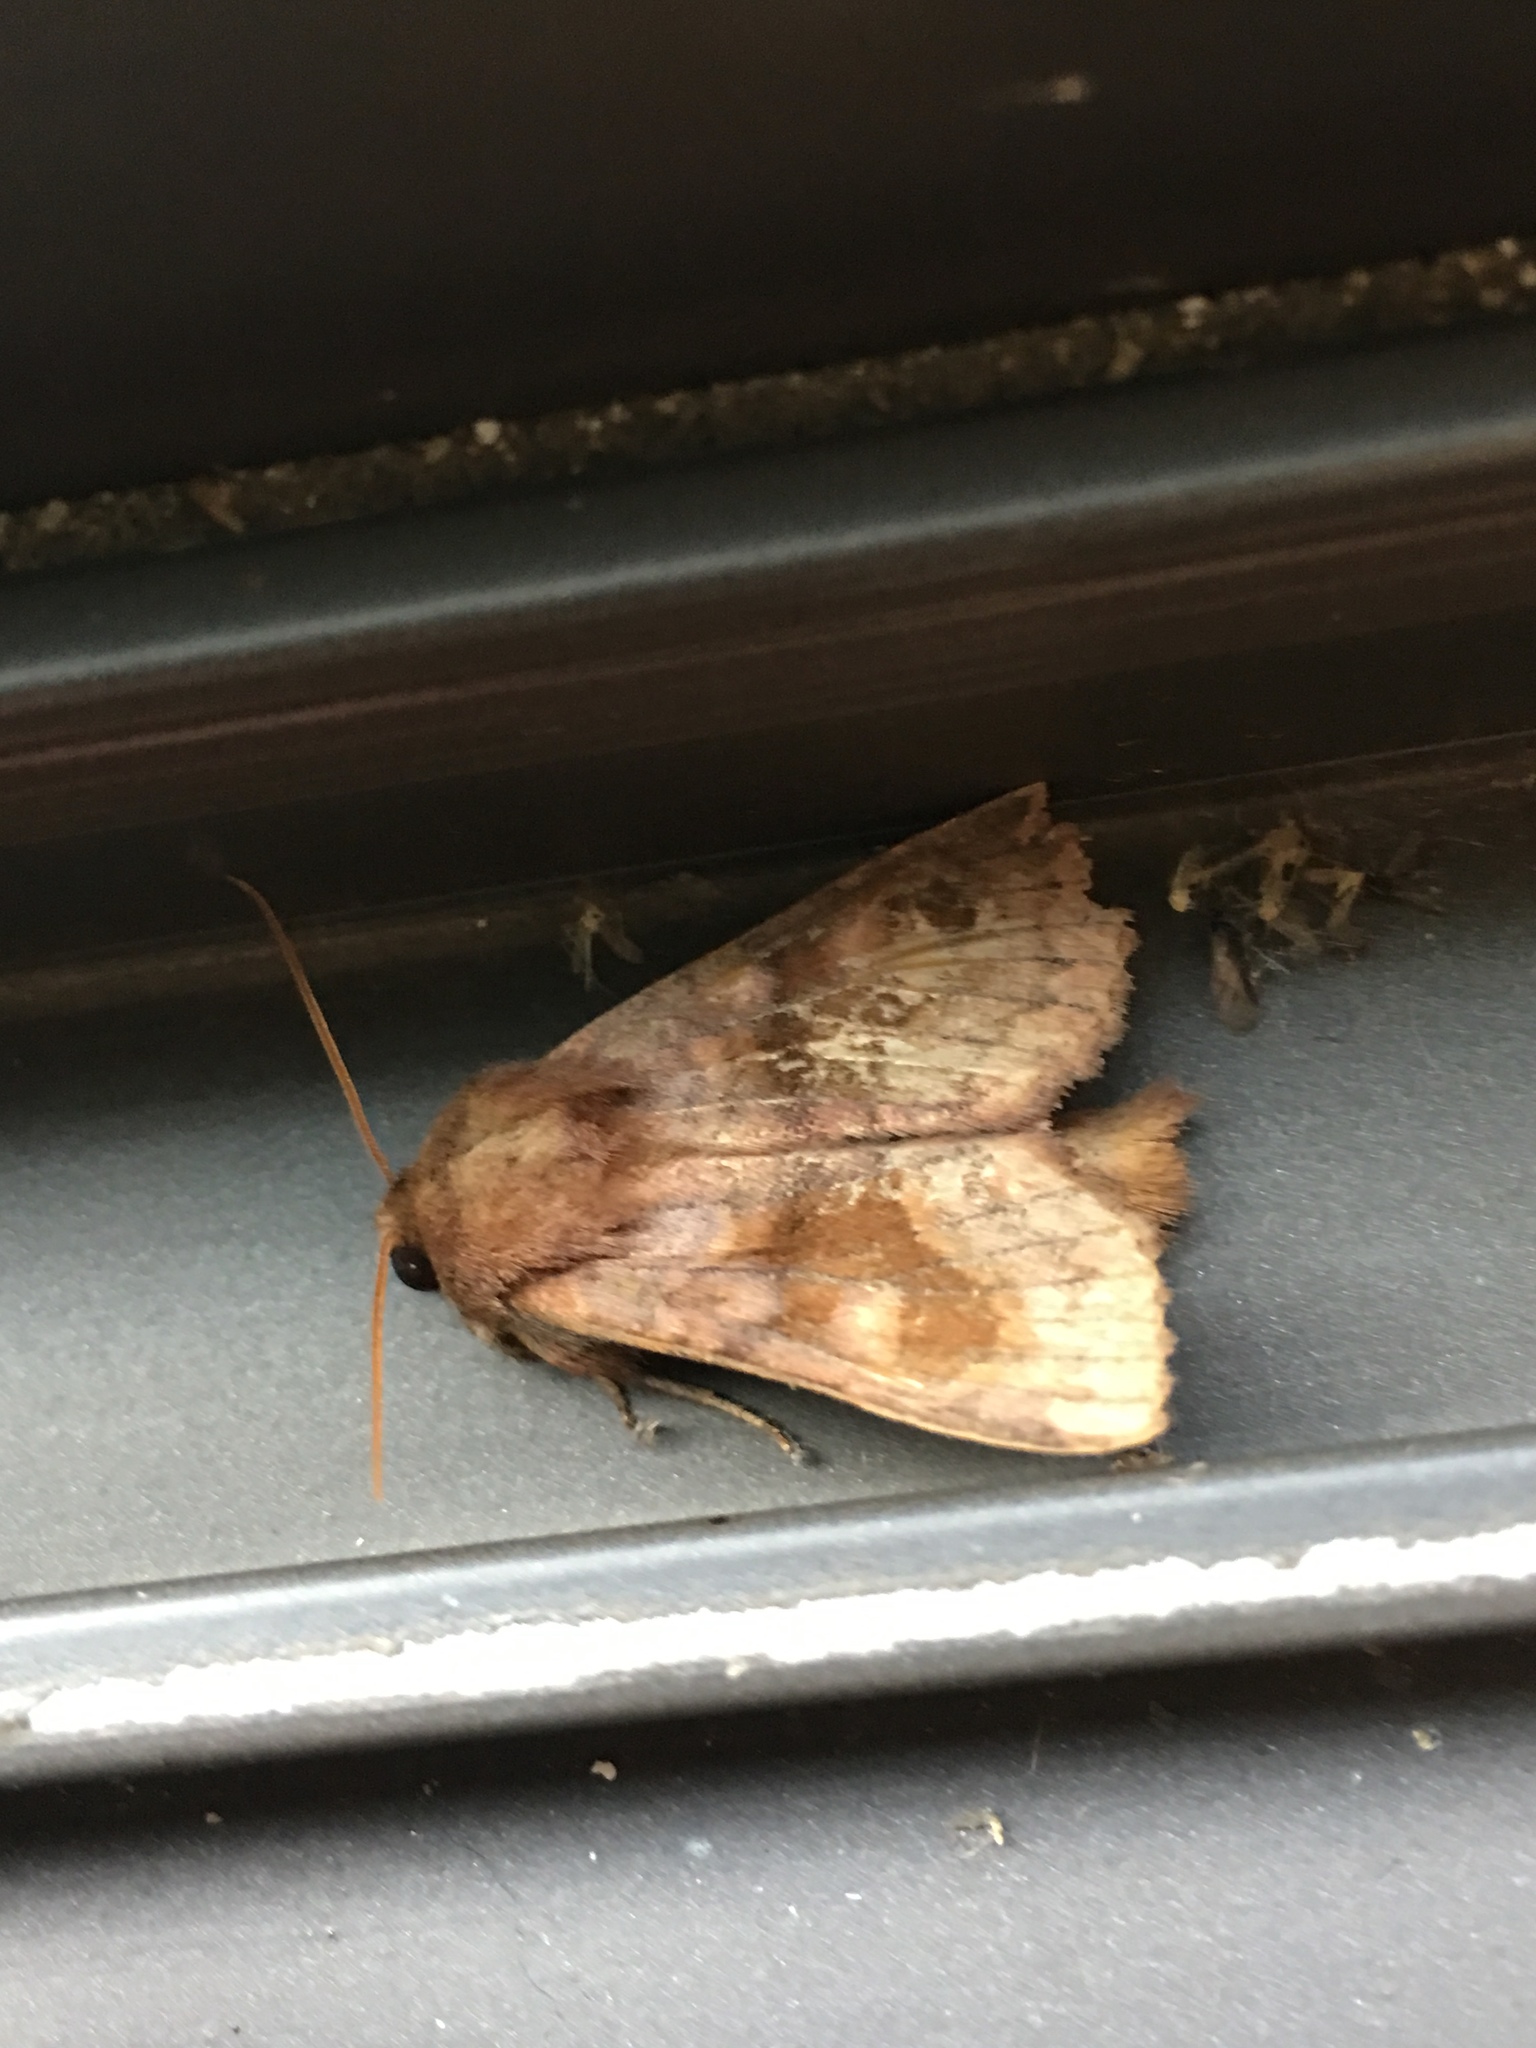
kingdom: Animalia
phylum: Arthropoda
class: Insecta
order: Lepidoptera
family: Noctuidae
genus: Nephelodes
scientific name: Nephelodes minians
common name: Bronzed cutworm
